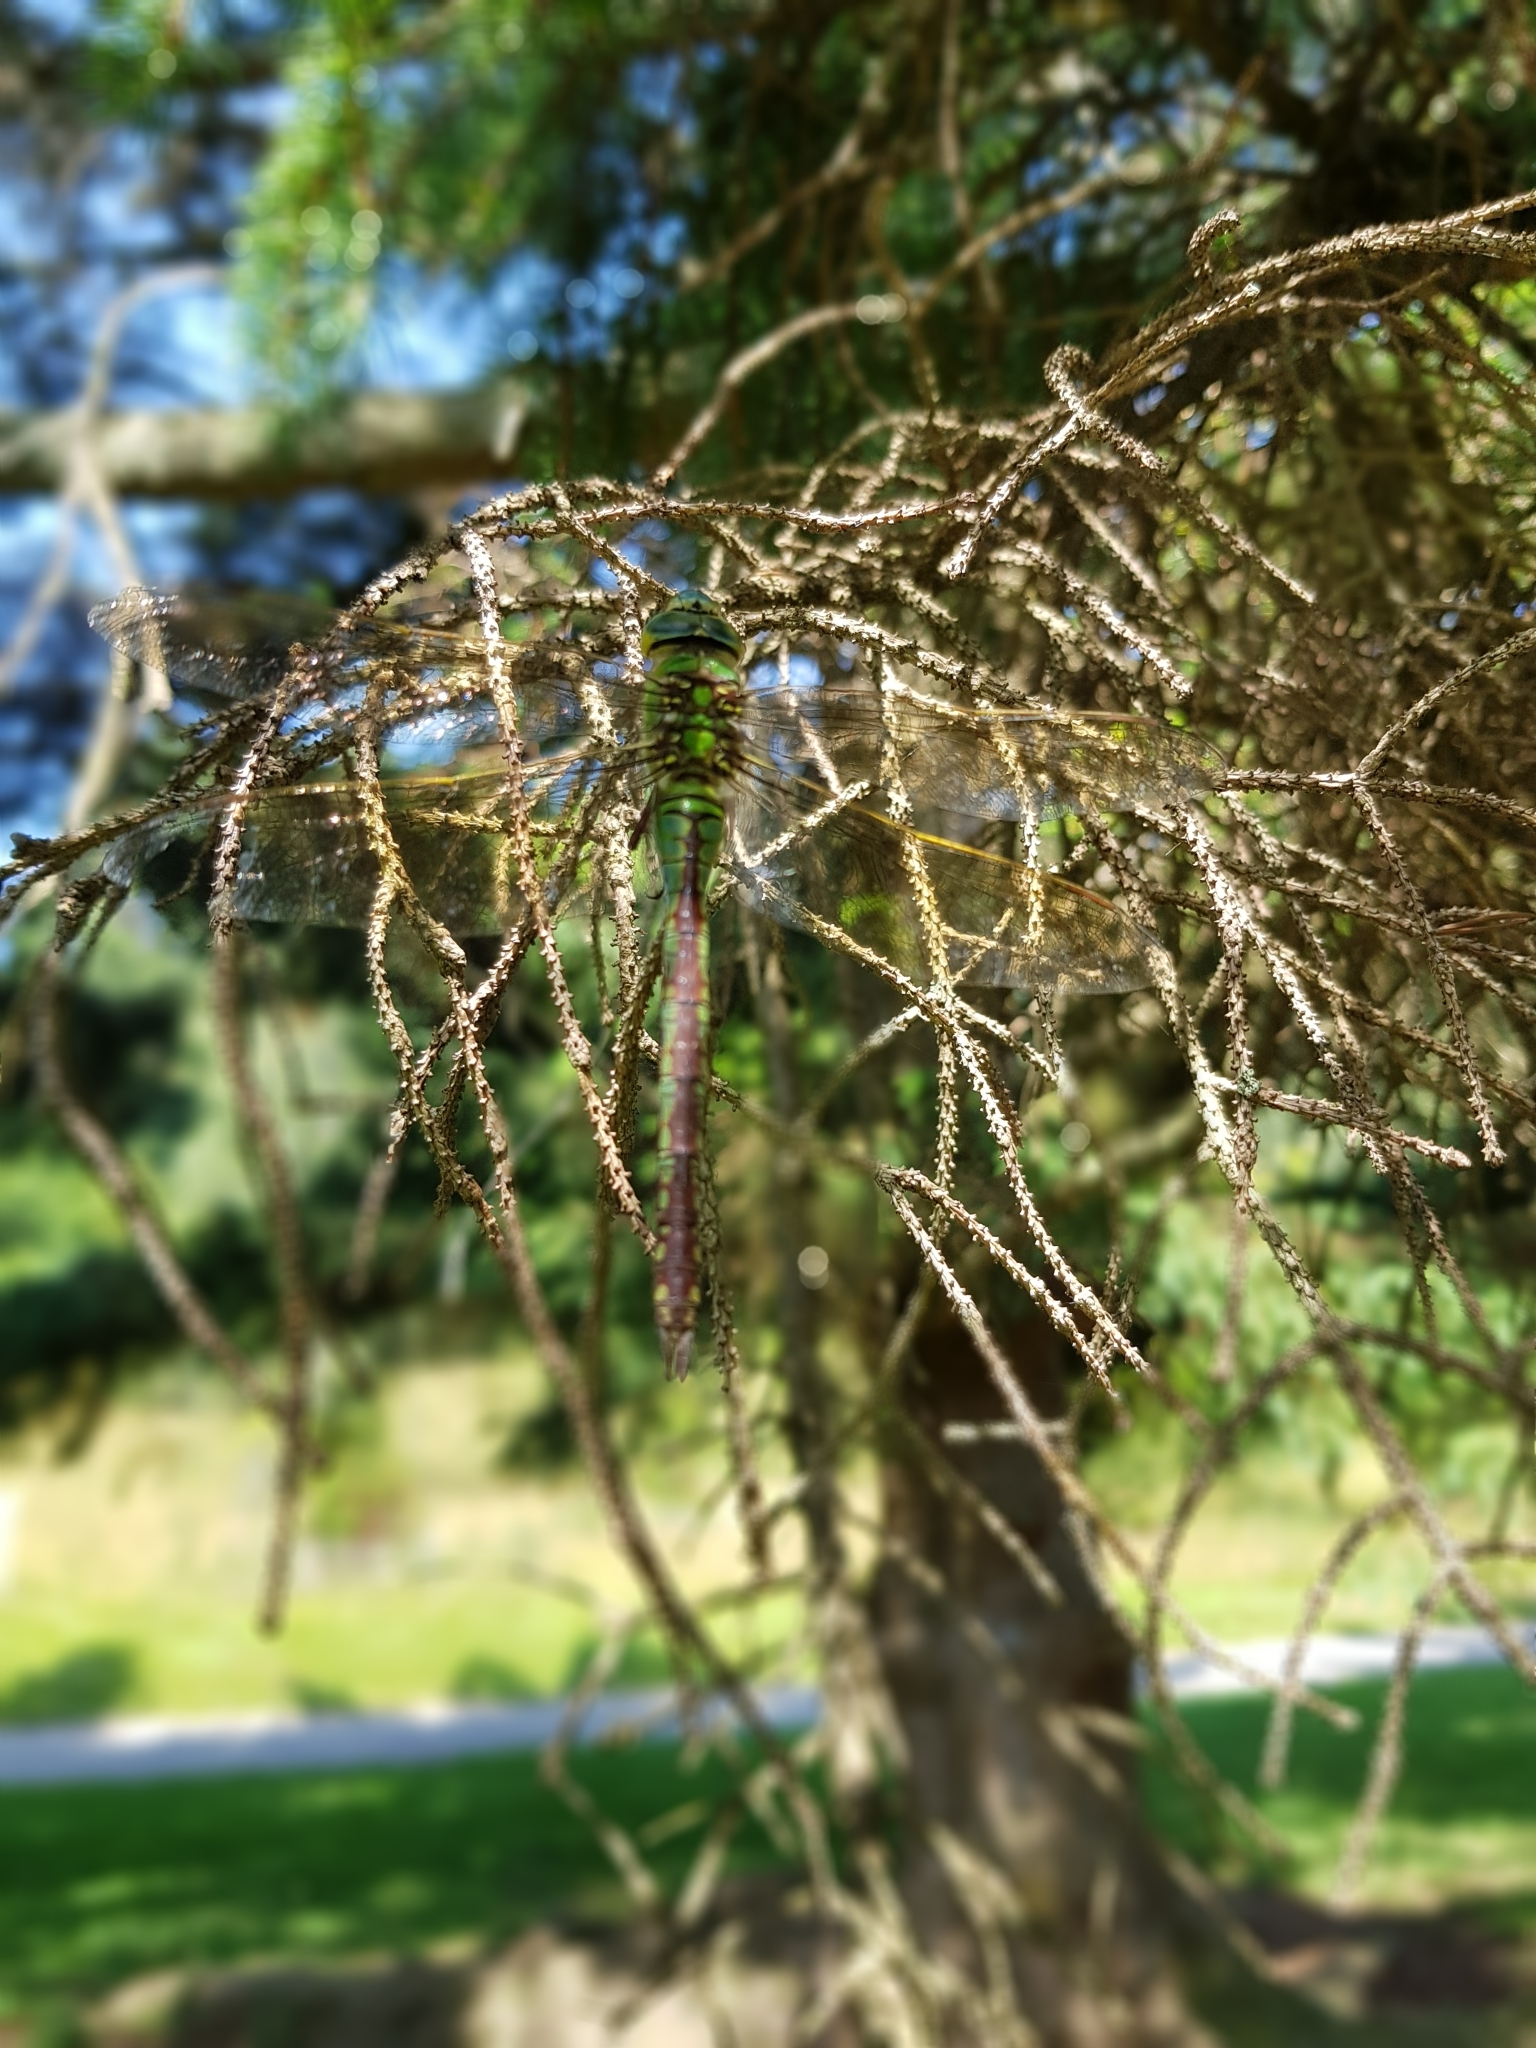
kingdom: Animalia
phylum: Arthropoda
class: Insecta
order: Odonata
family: Aeshnidae
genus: Anax
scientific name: Anax imperator
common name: Emperor dragonfly
